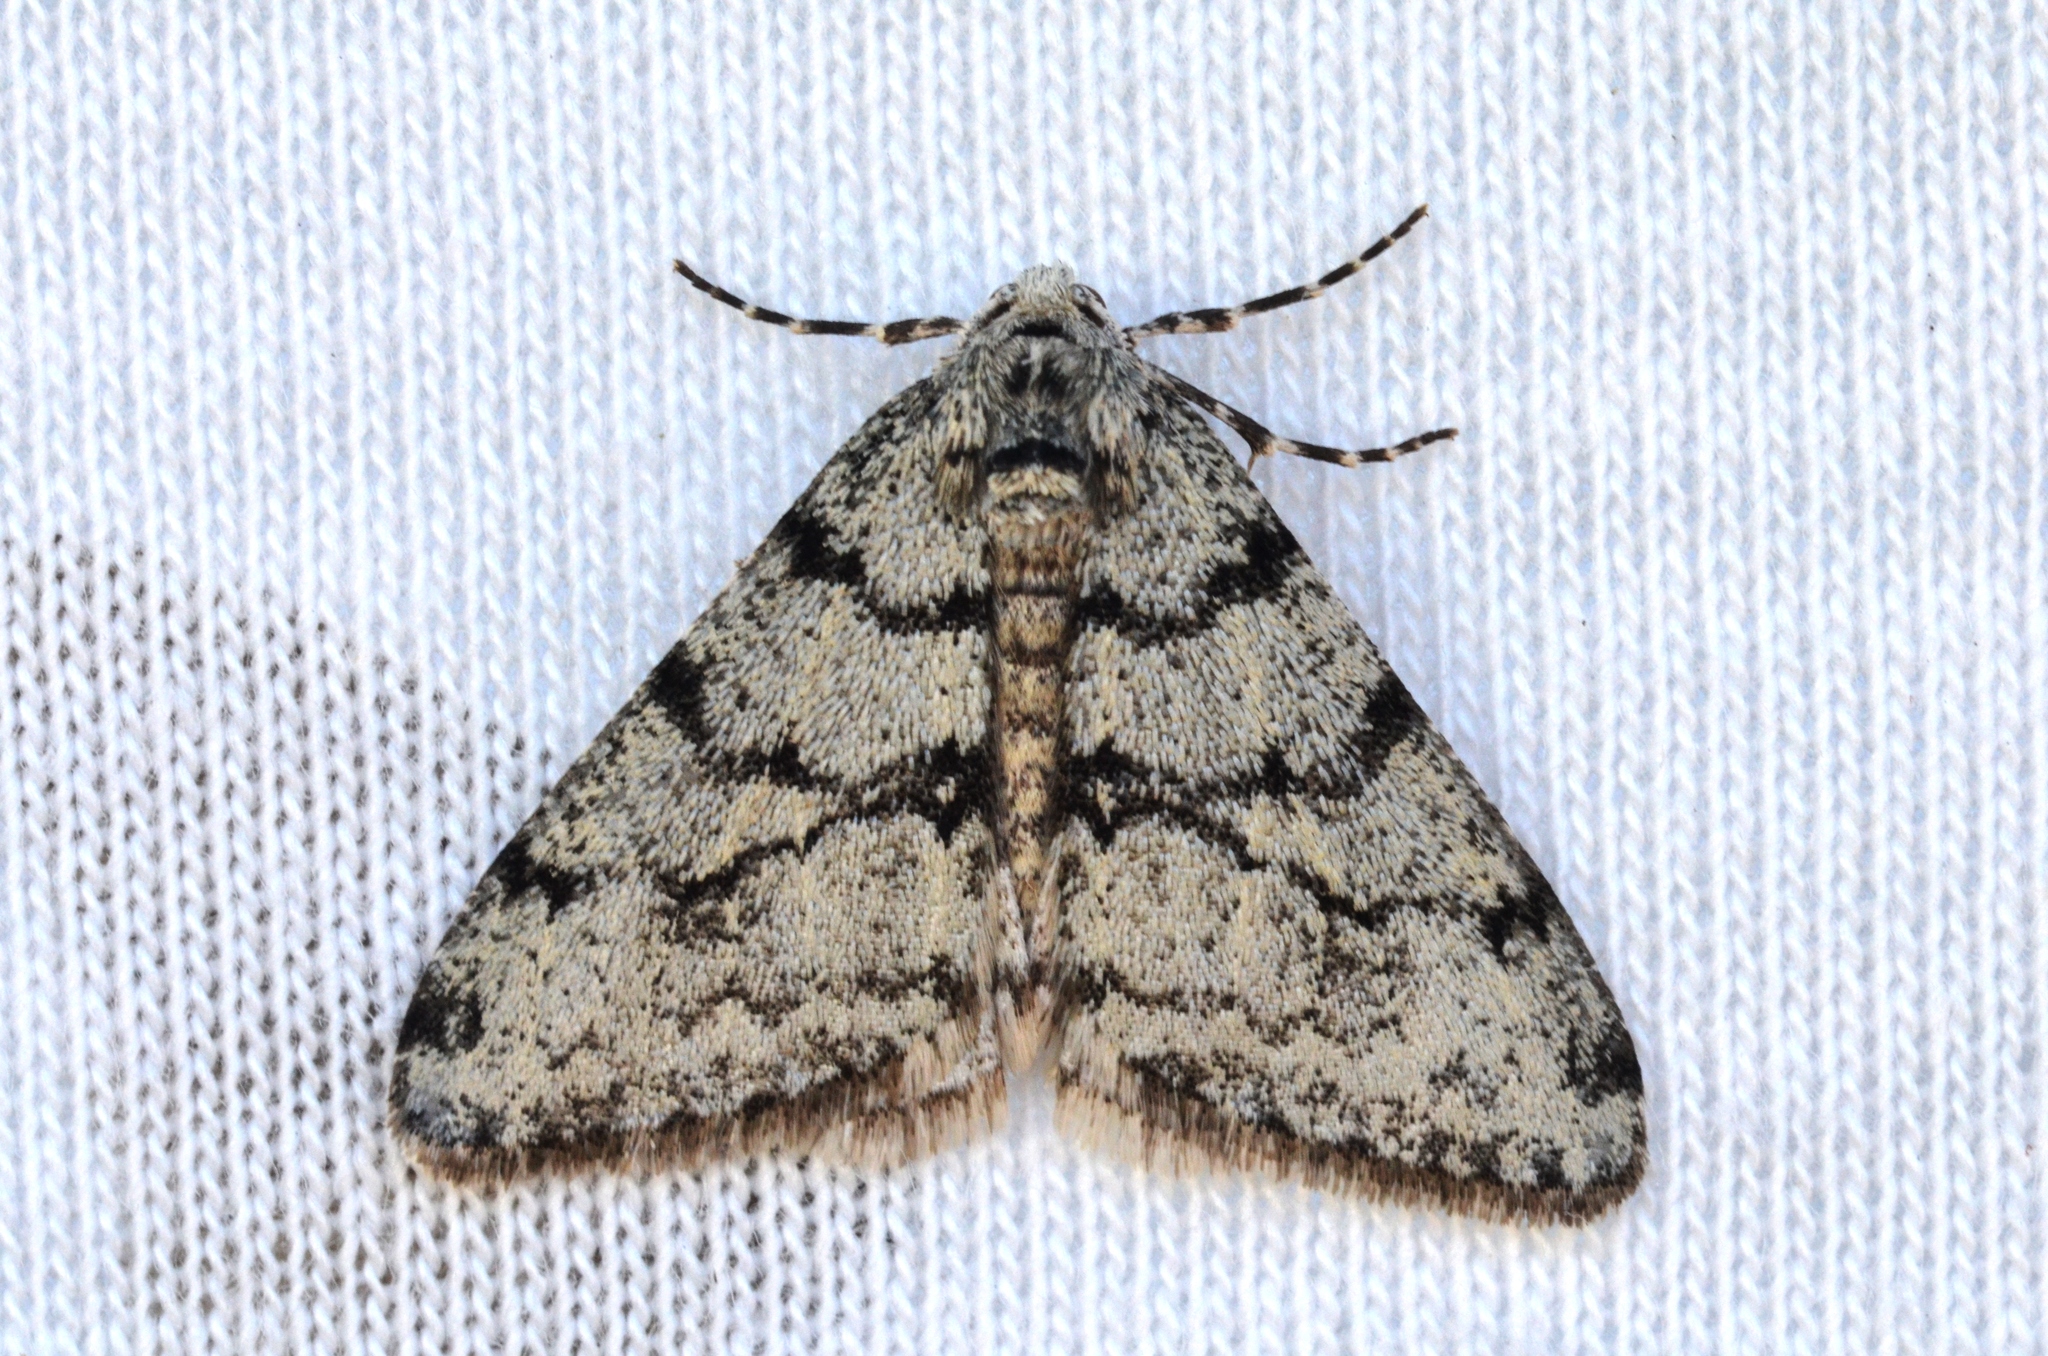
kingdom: Animalia
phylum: Arthropoda
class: Insecta
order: Lepidoptera
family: Geometridae
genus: Phigalia
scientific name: Phigalia strigataria
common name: Small phigalia
